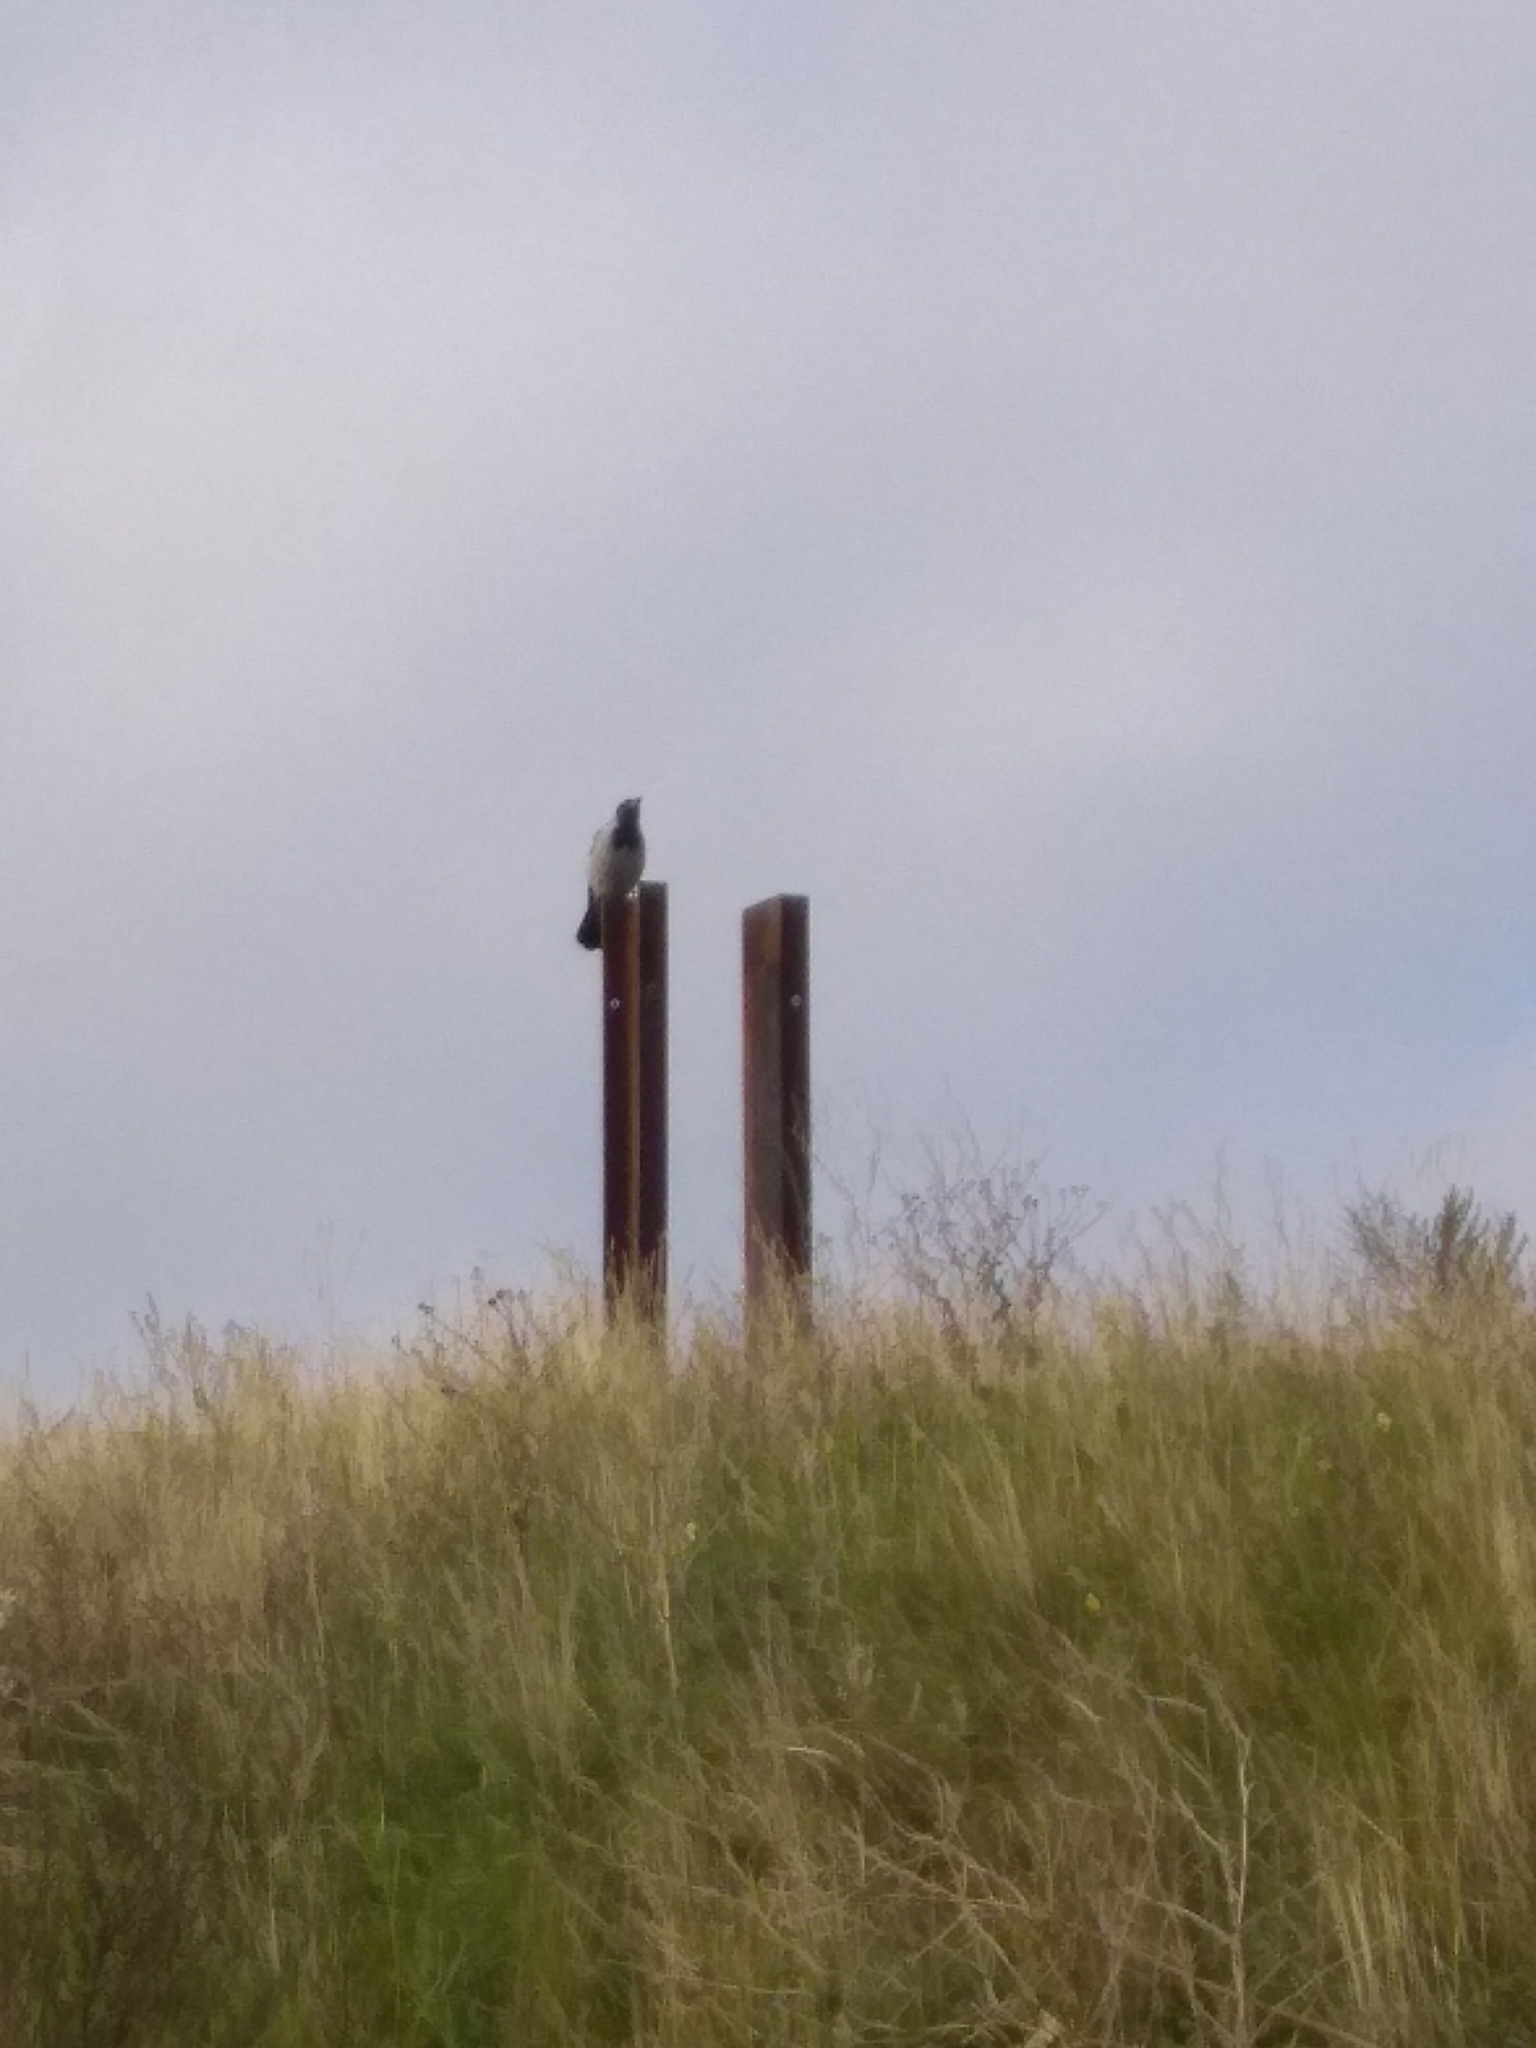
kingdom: Animalia
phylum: Chordata
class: Aves
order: Passeriformes
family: Corvidae
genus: Corvus
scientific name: Corvus cornix
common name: Hooded crow
